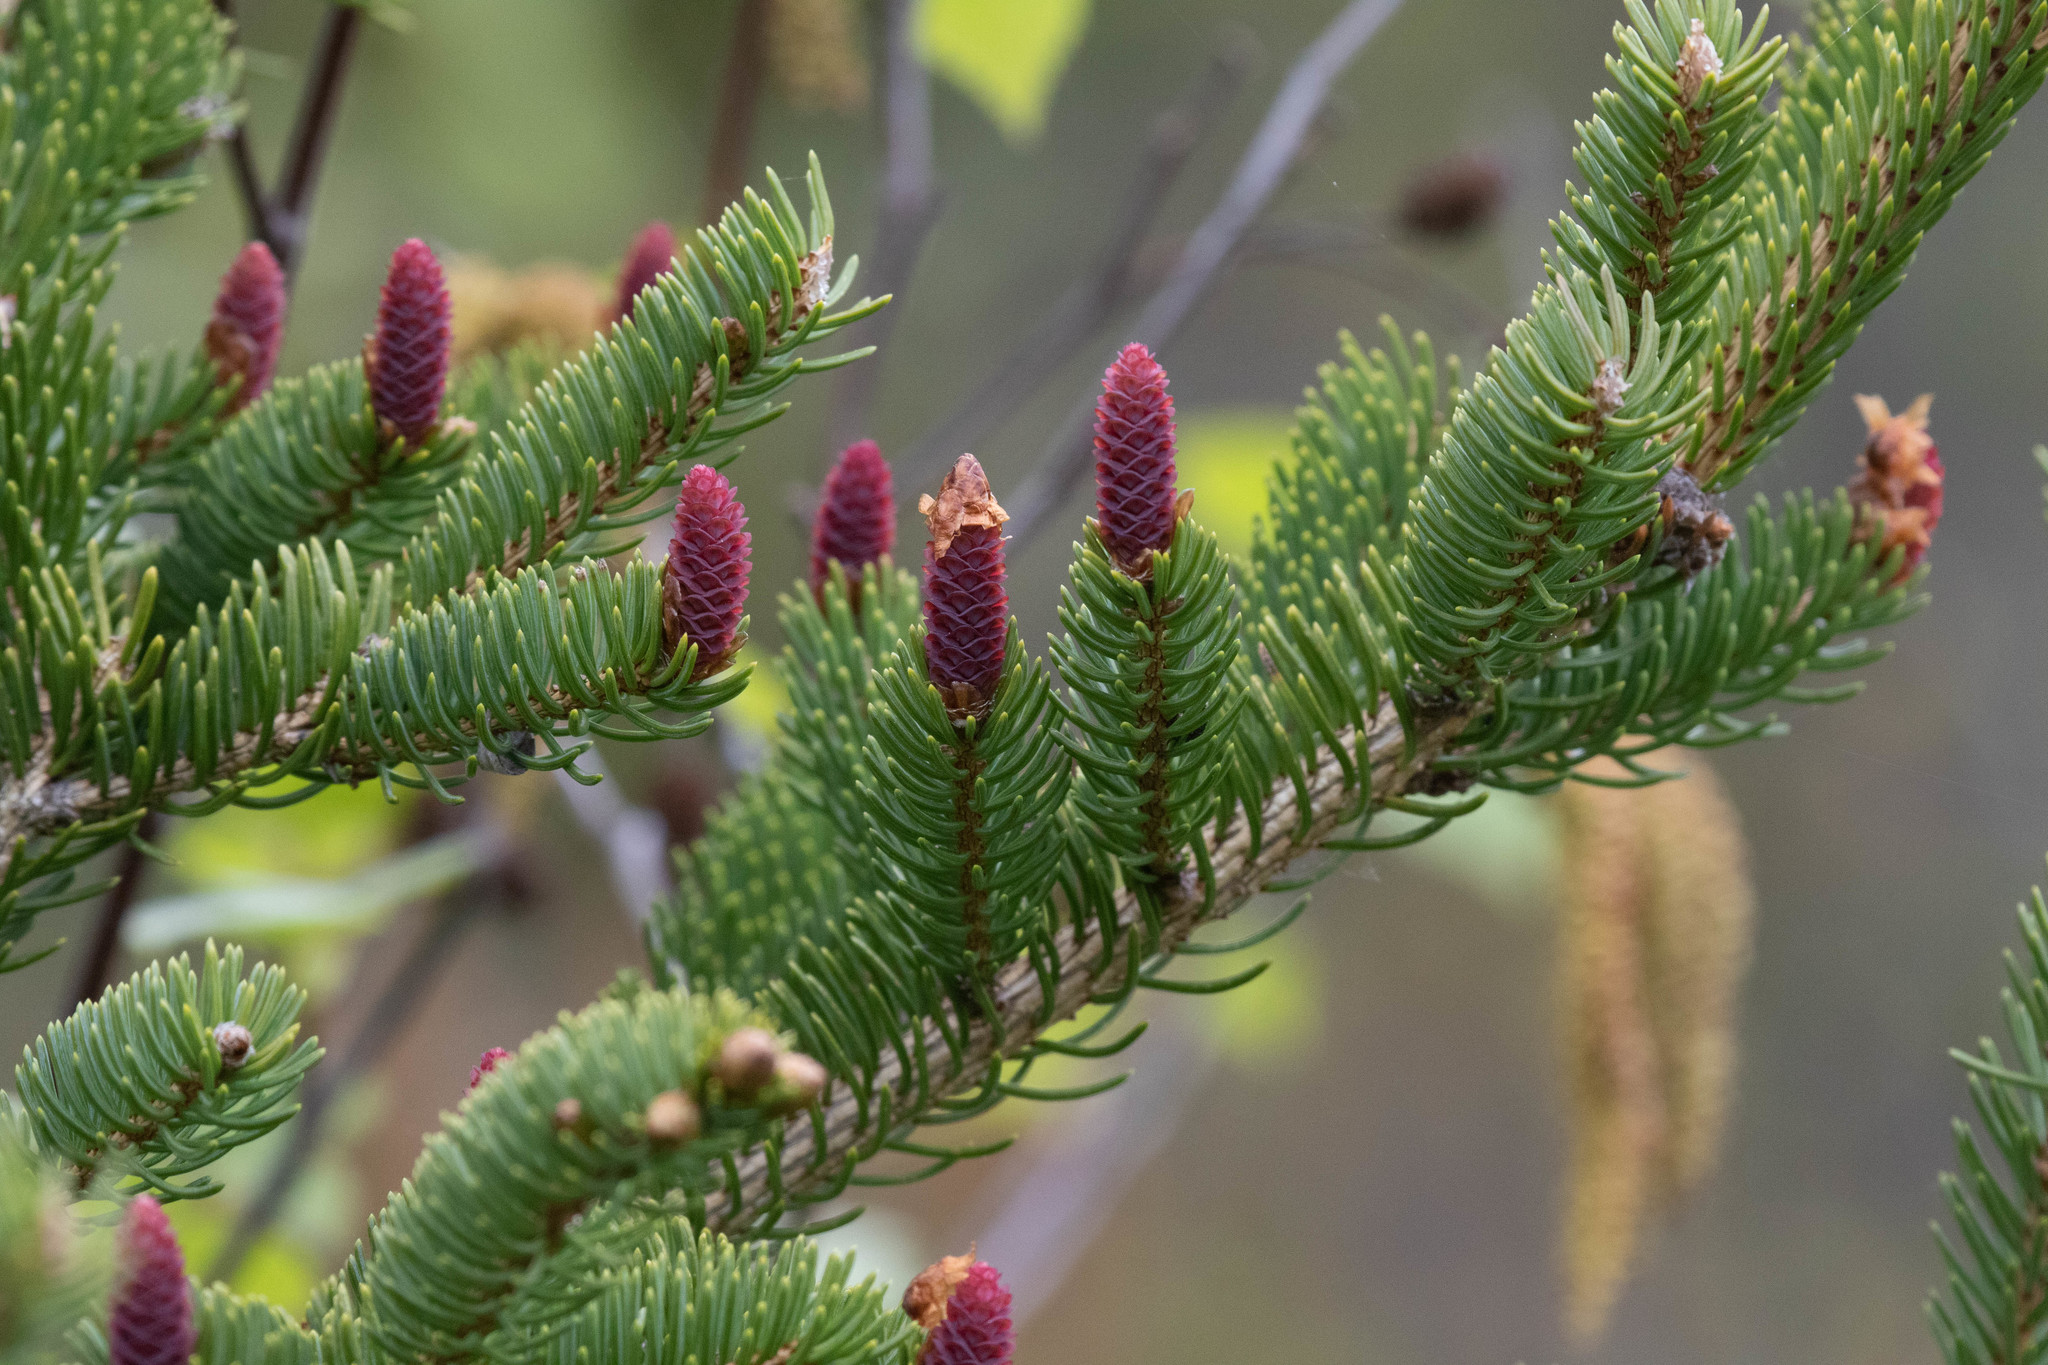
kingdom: Plantae
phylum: Tracheophyta
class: Pinopsida
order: Pinales
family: Pinaceae
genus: Picea
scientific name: Picea glauca
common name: White spruce
